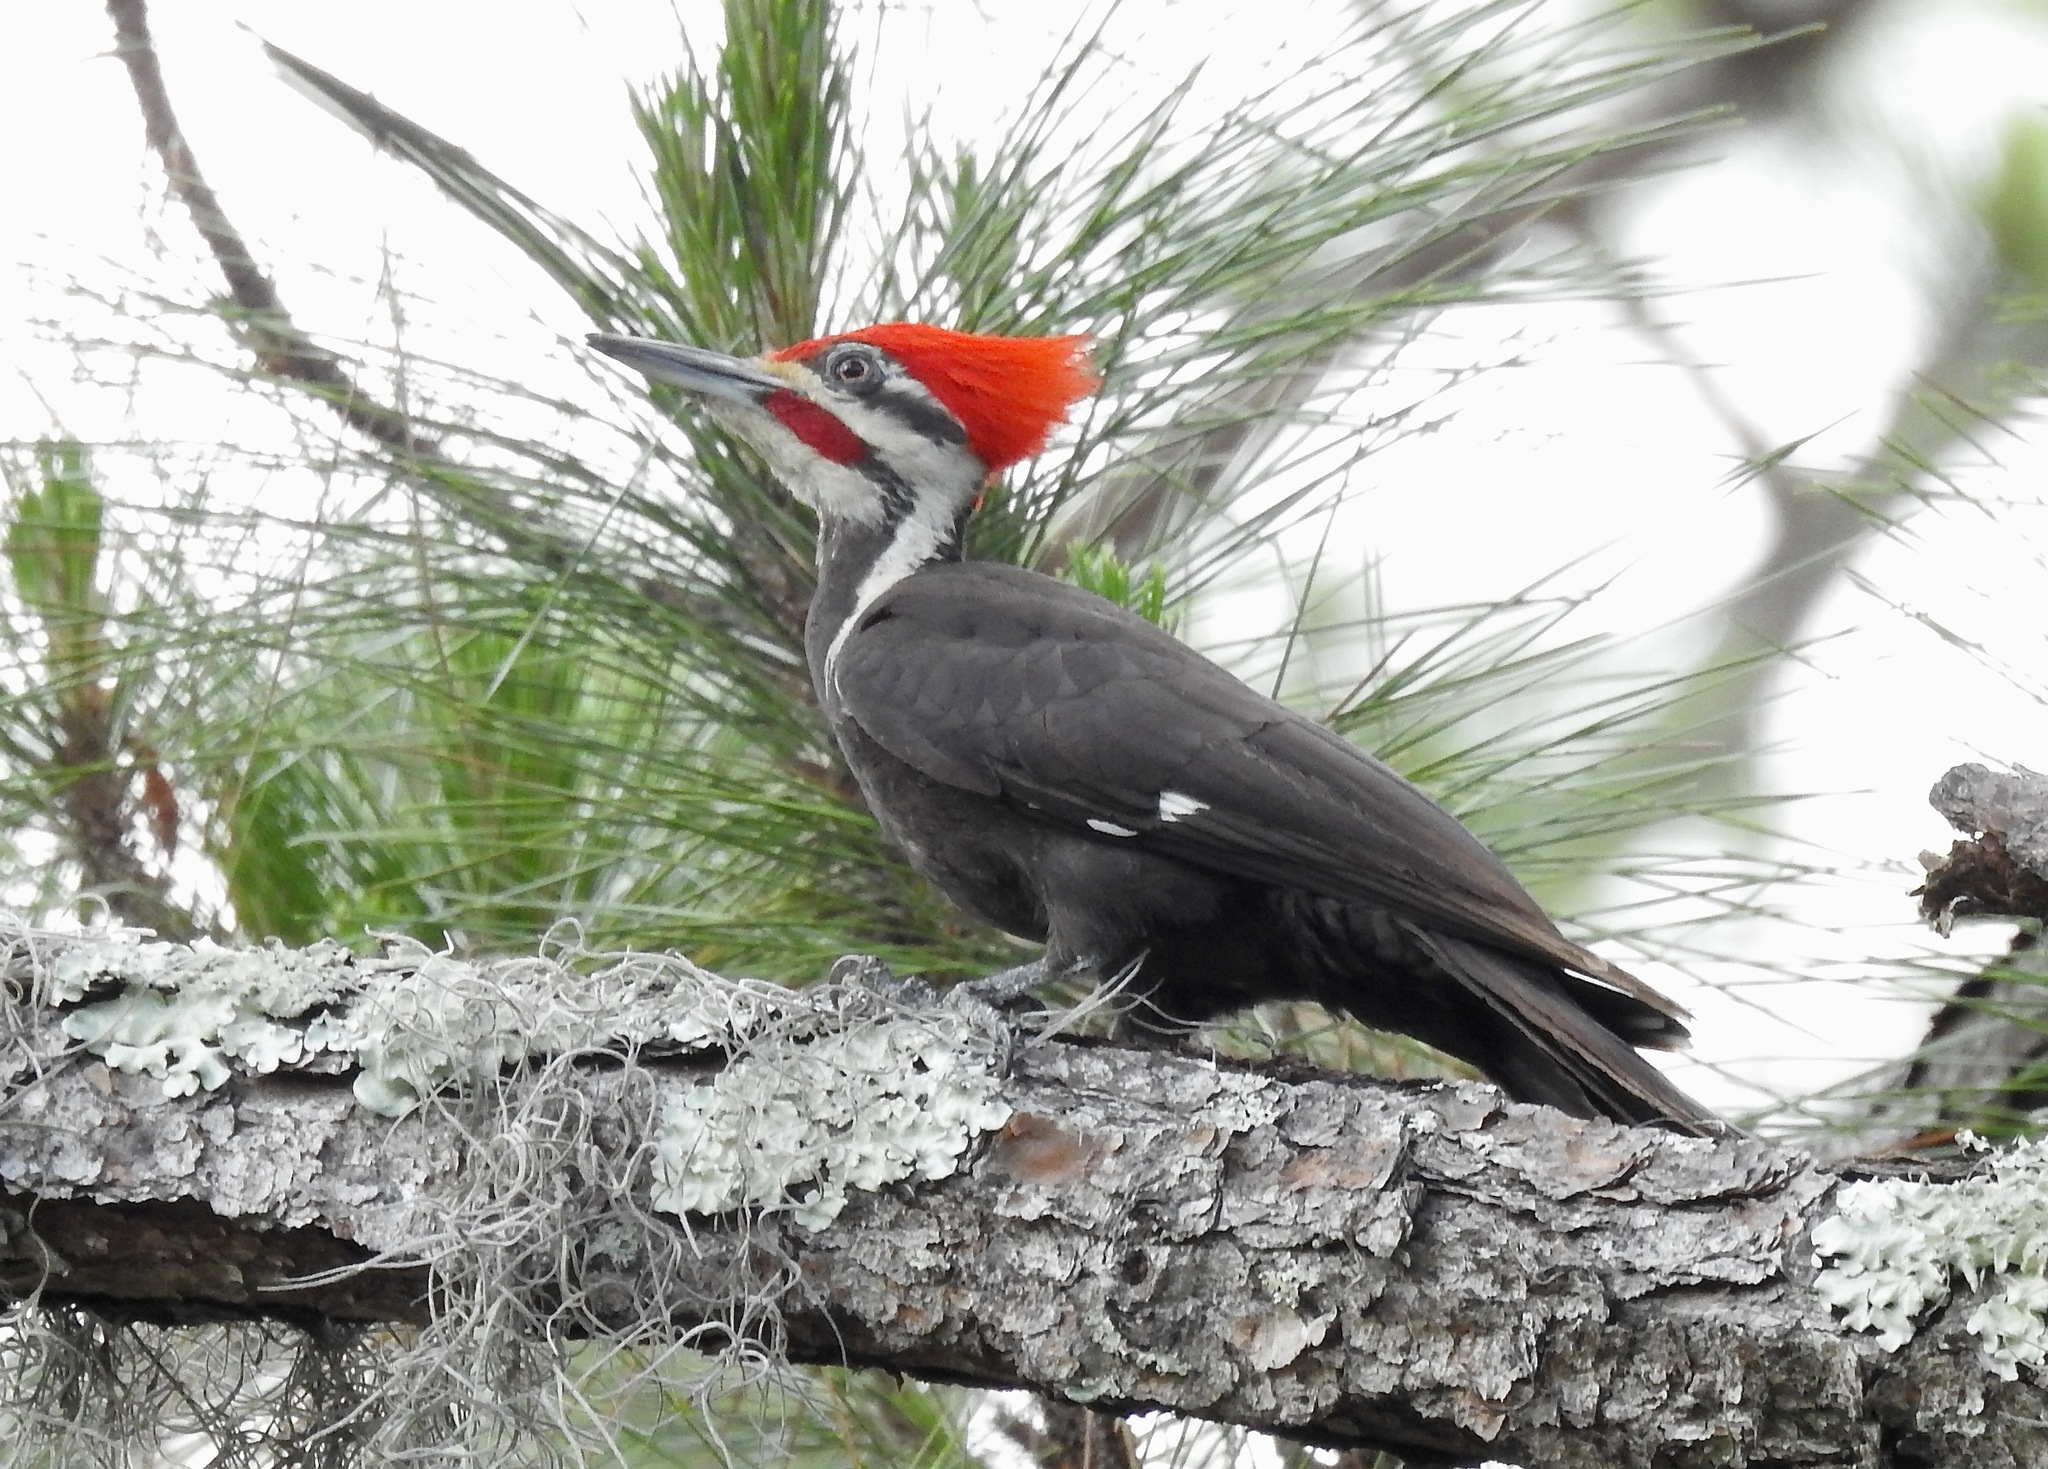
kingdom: Animalia
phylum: Chordata
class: Aves
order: Piciformes
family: Picidae
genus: Dryocopus
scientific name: Dryocopus pileatus
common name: Pileated woodpecker
